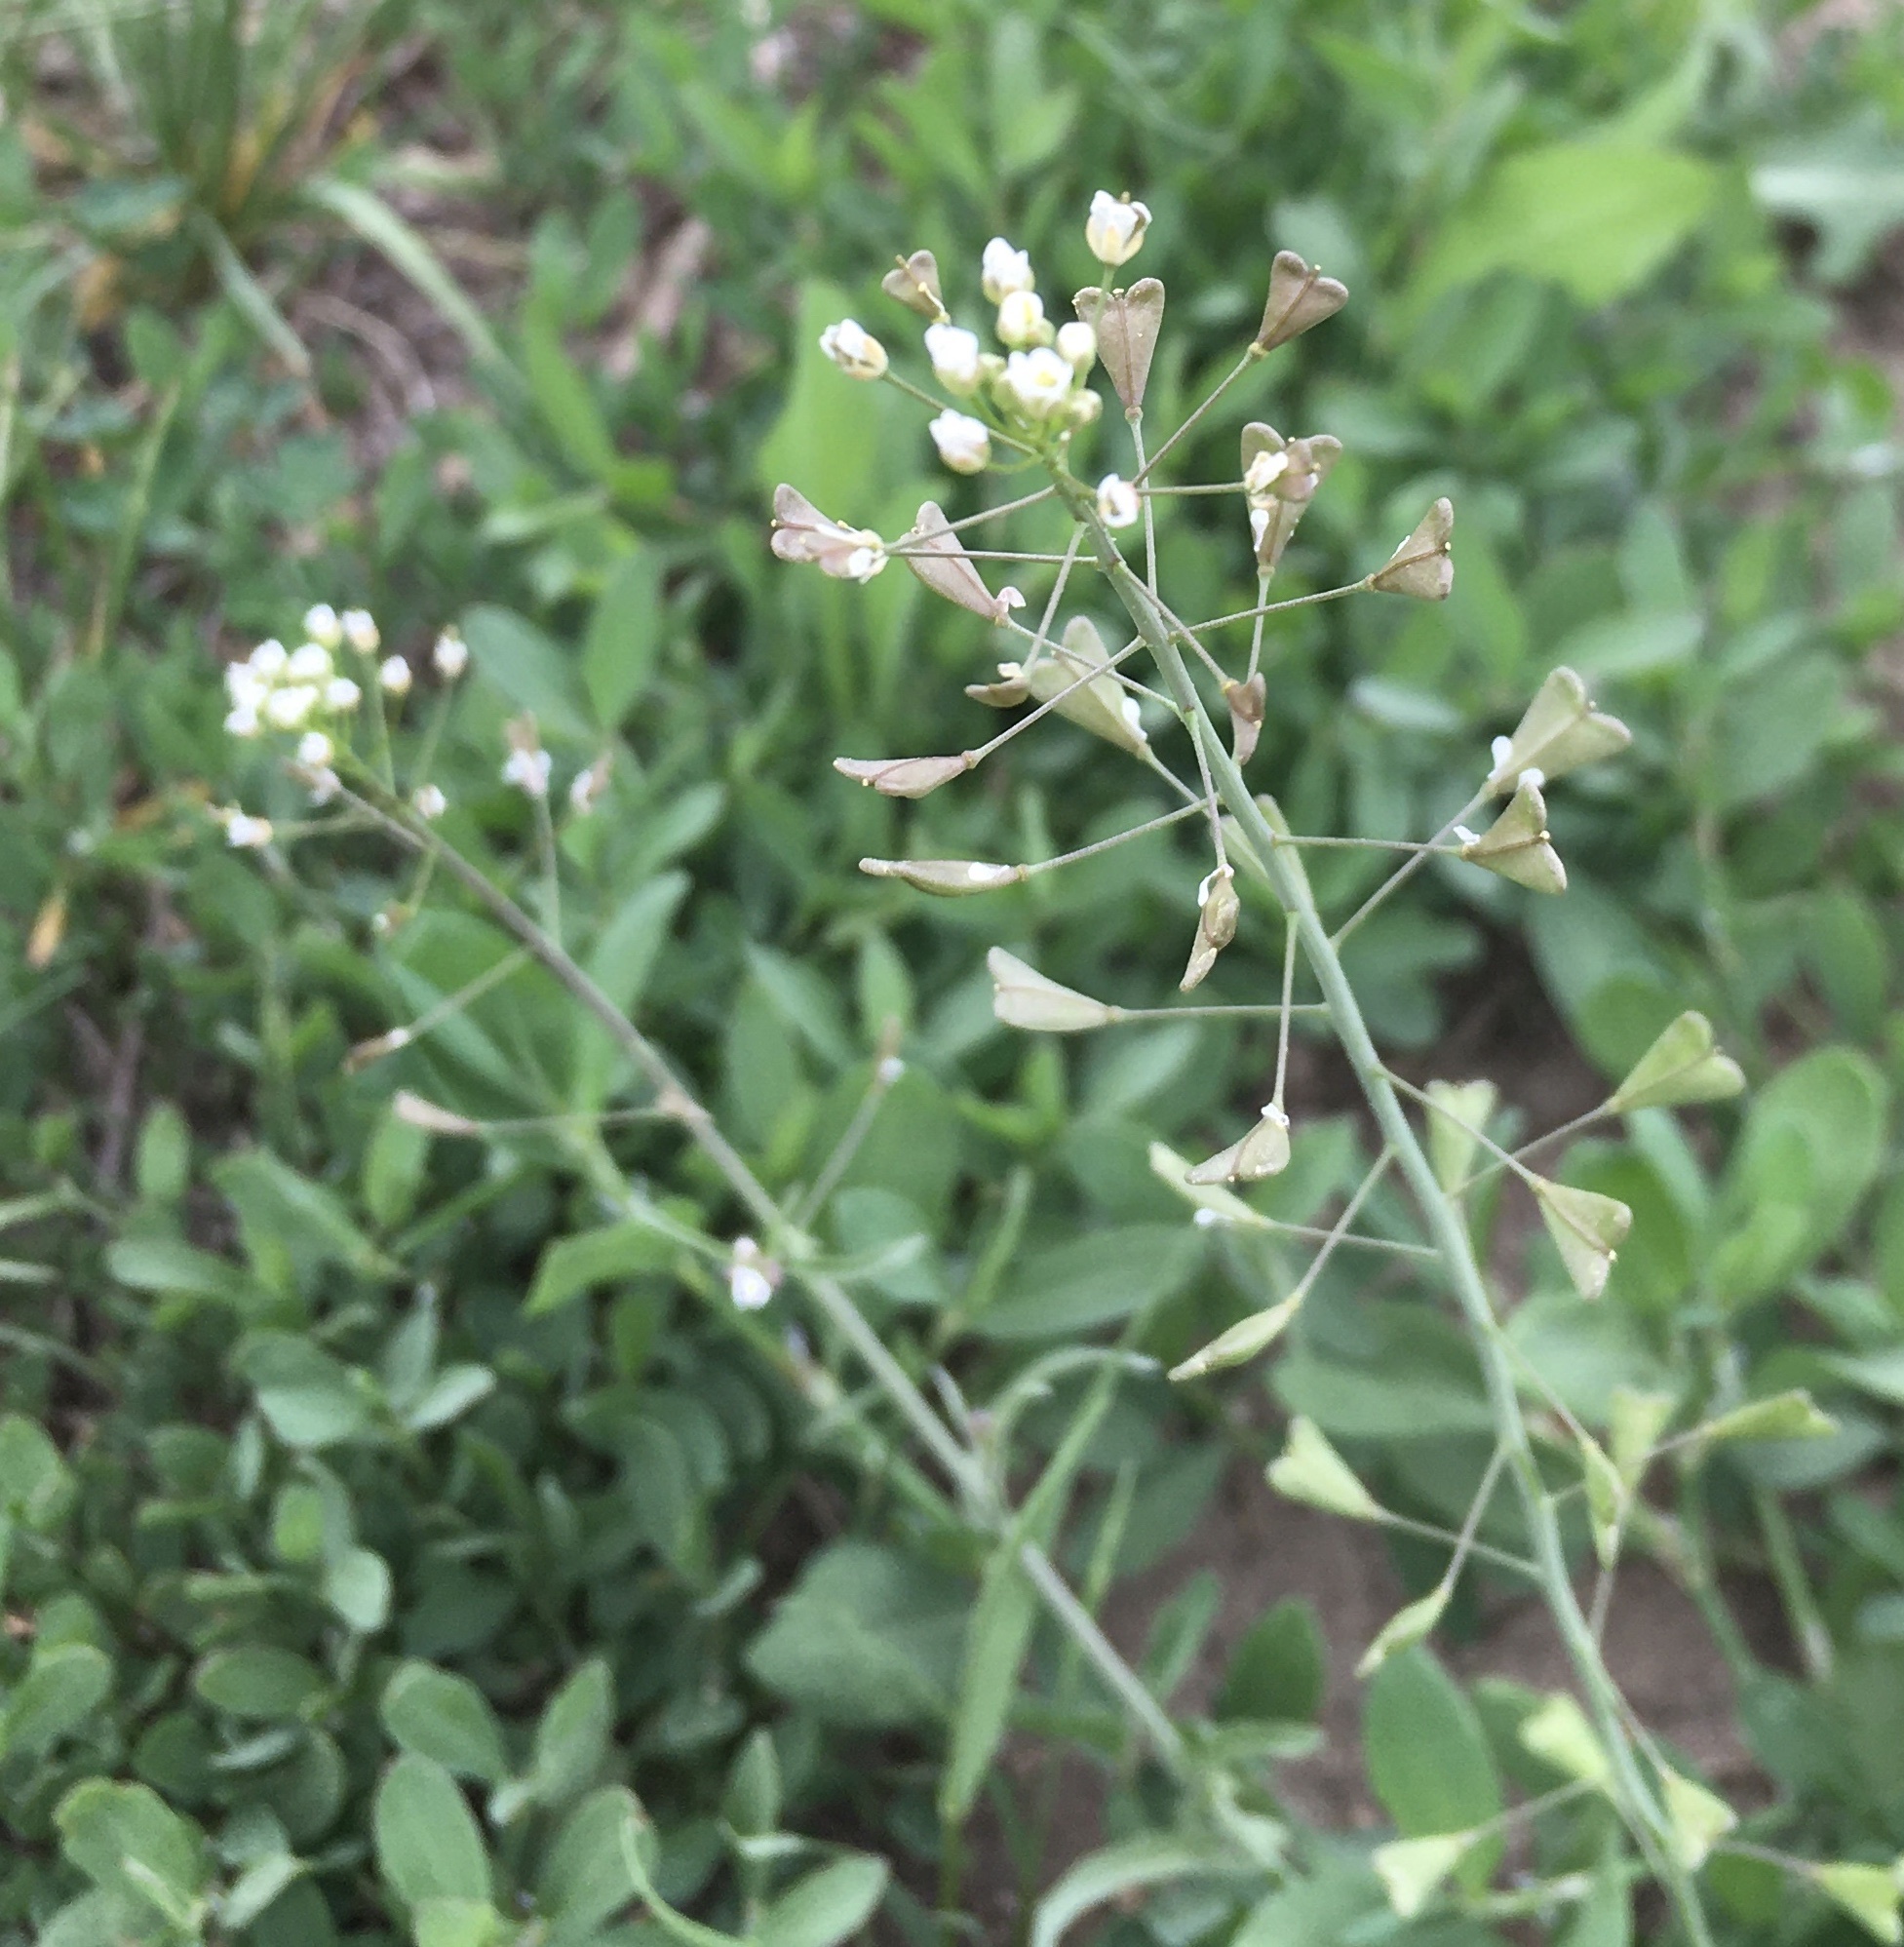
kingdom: Plantae
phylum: Tracheophyta
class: Magnoliopsida
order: Brassicales
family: Brassicaceae
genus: Capsella
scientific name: Capsella bursa-pastoris
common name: Shepherd's purse
